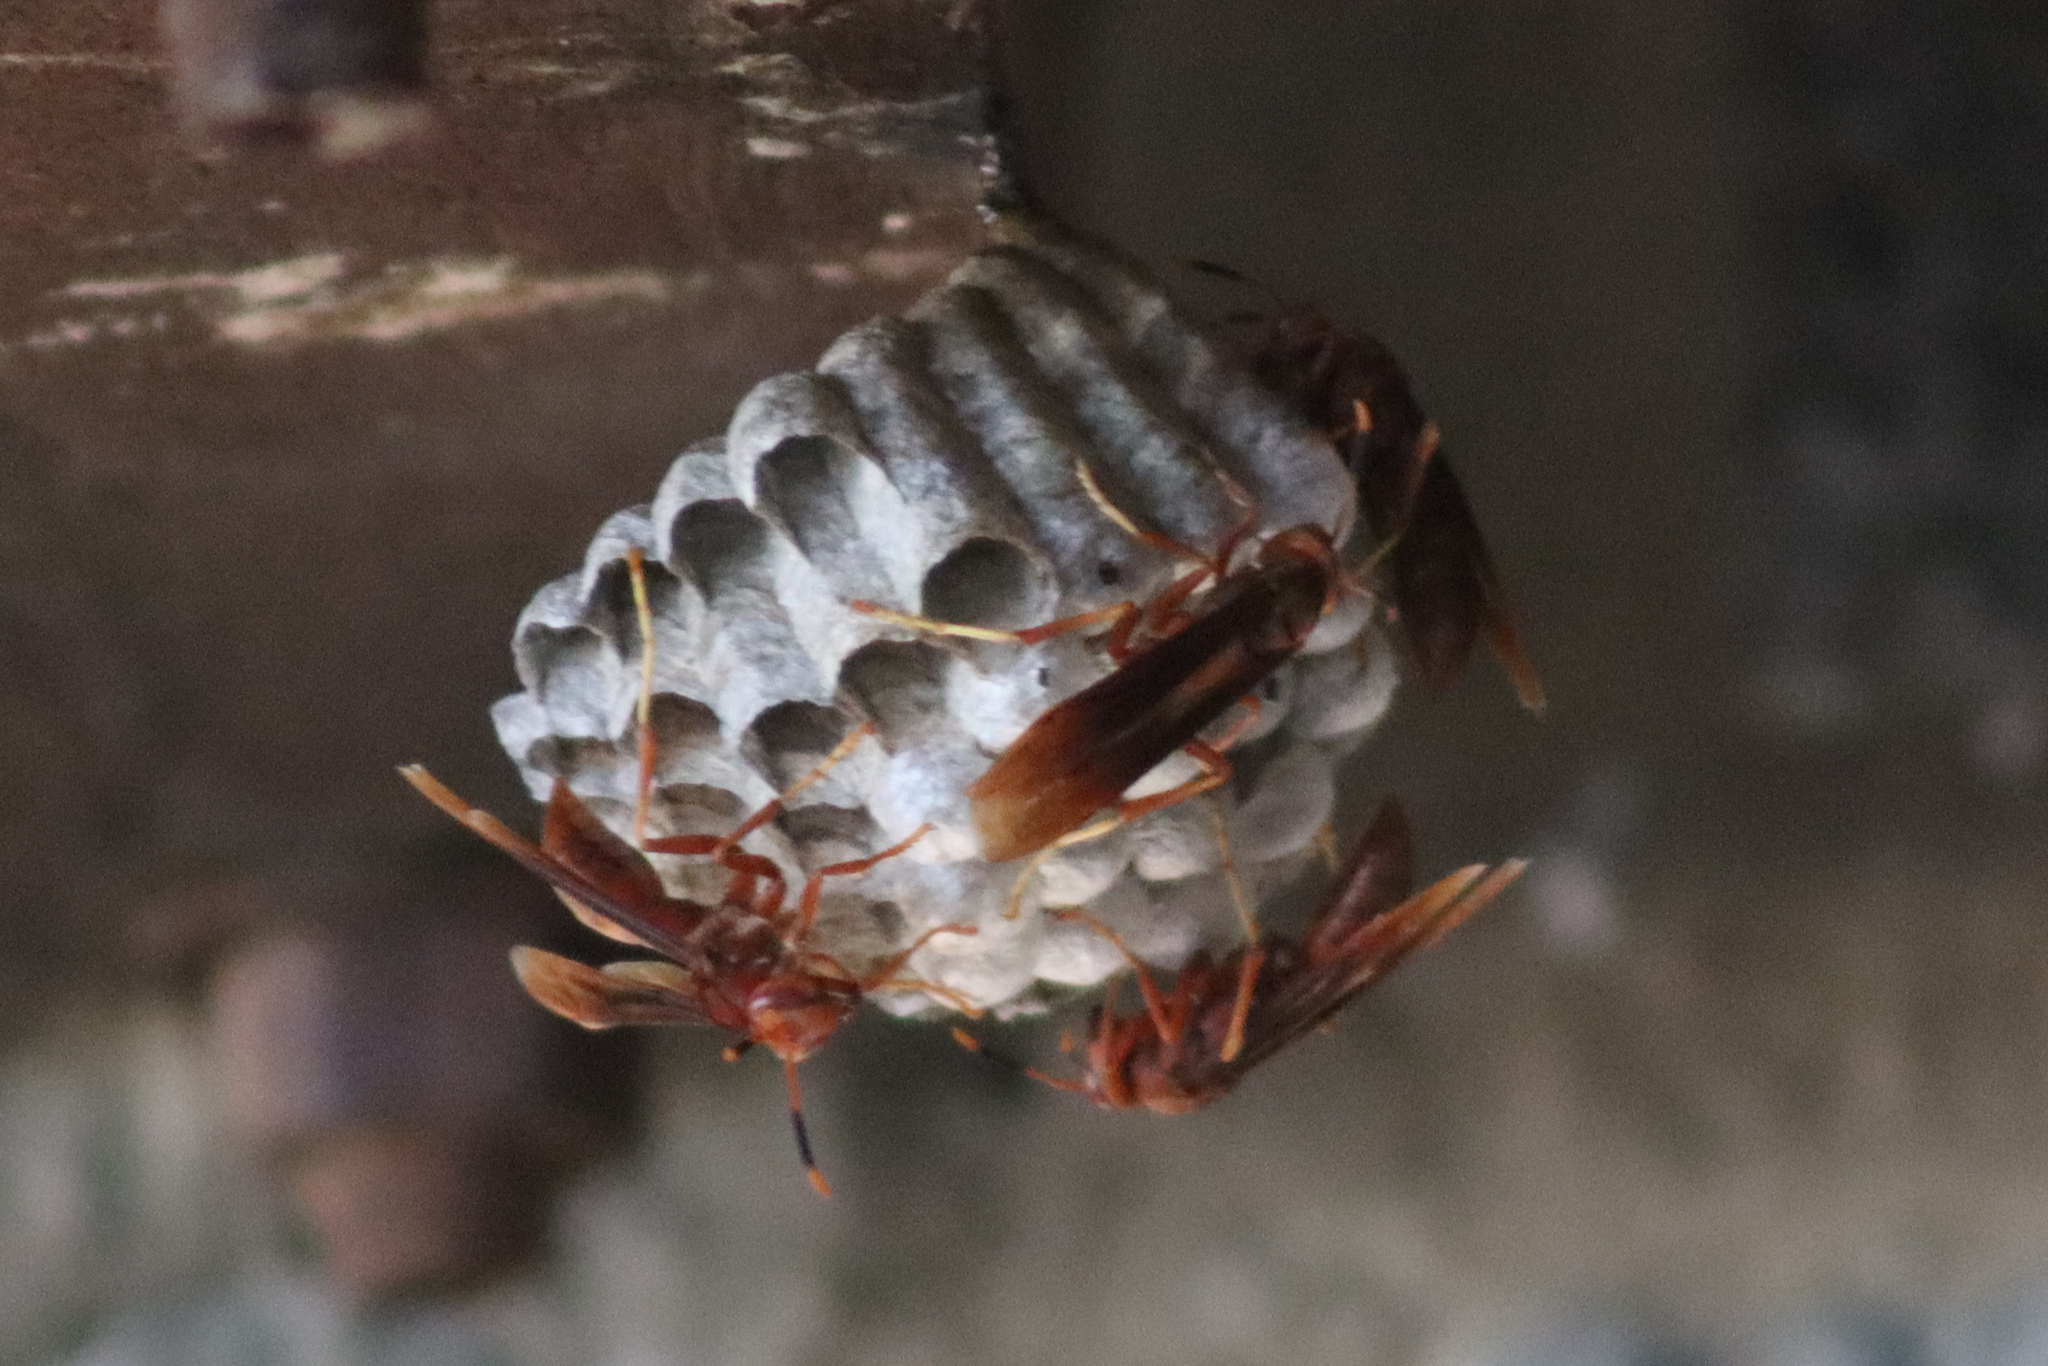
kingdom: Animalia
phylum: Arthropoda
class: Insecta
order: Hymenoptera
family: Eumenidae
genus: Polistes
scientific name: Polistes canadensis
